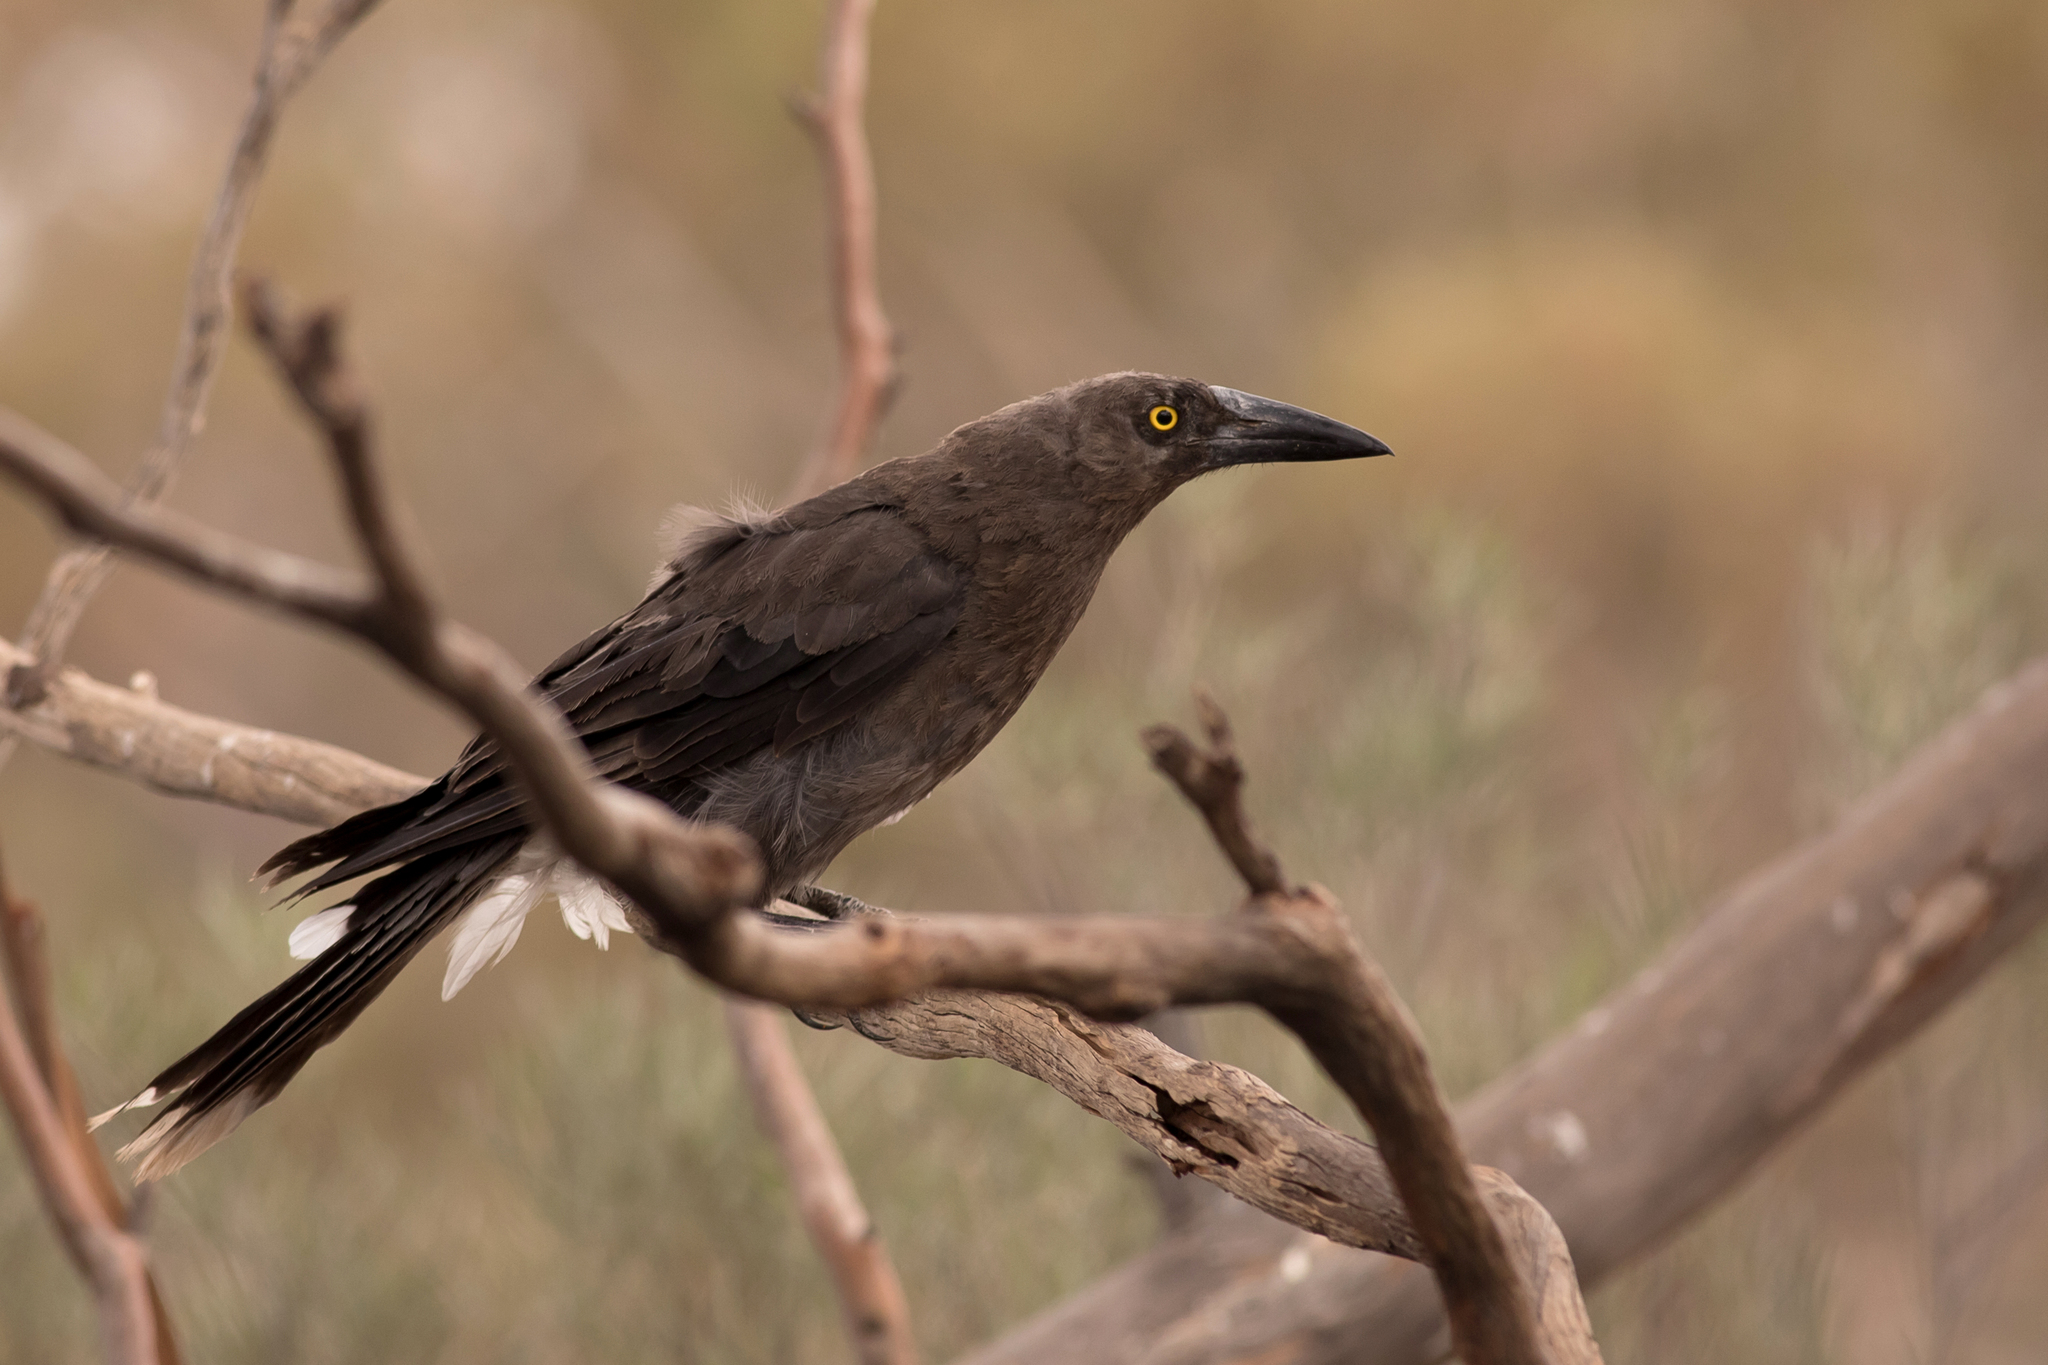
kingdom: Animalia
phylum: Chordata
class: Aves
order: Passeriformes
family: Cracticidae
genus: Strepera
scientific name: Strepera versicolor
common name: Grey currawong
